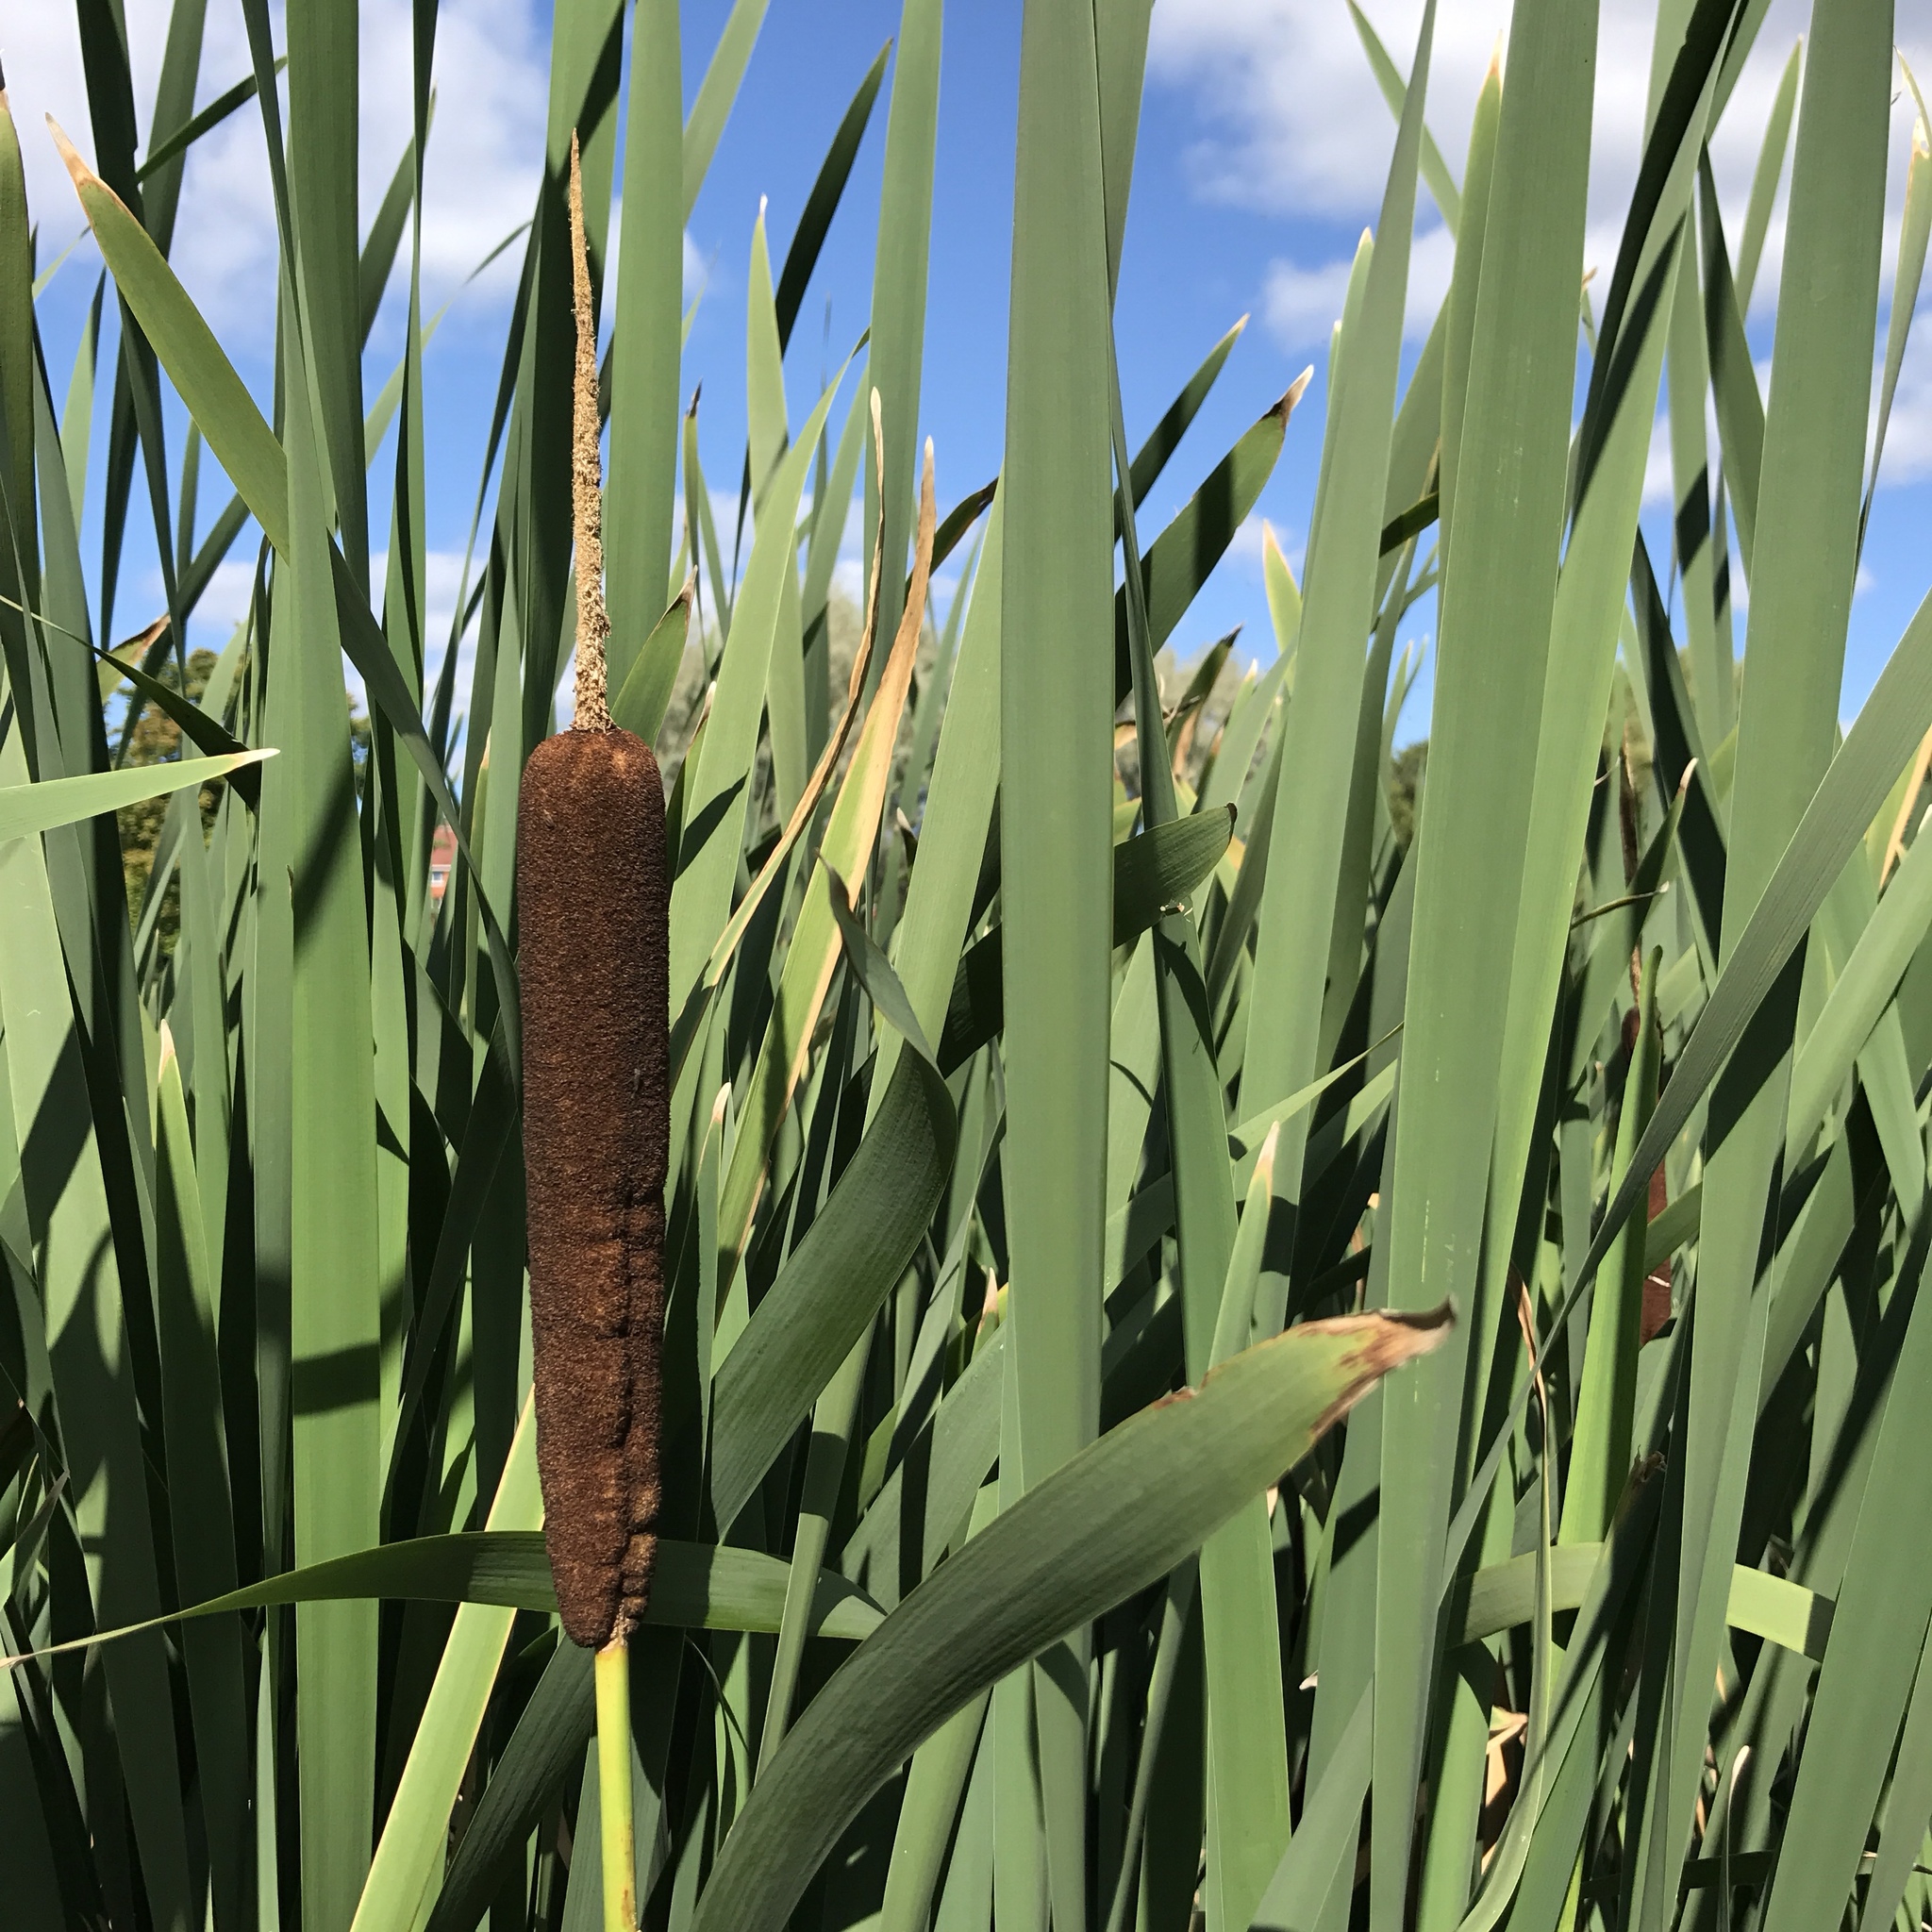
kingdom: Plantae
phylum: Tracheophyta
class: Liliopsida
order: Poales
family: Typhaceae
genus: Typha
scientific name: Typha latifolia
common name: Broadleaf cattail
